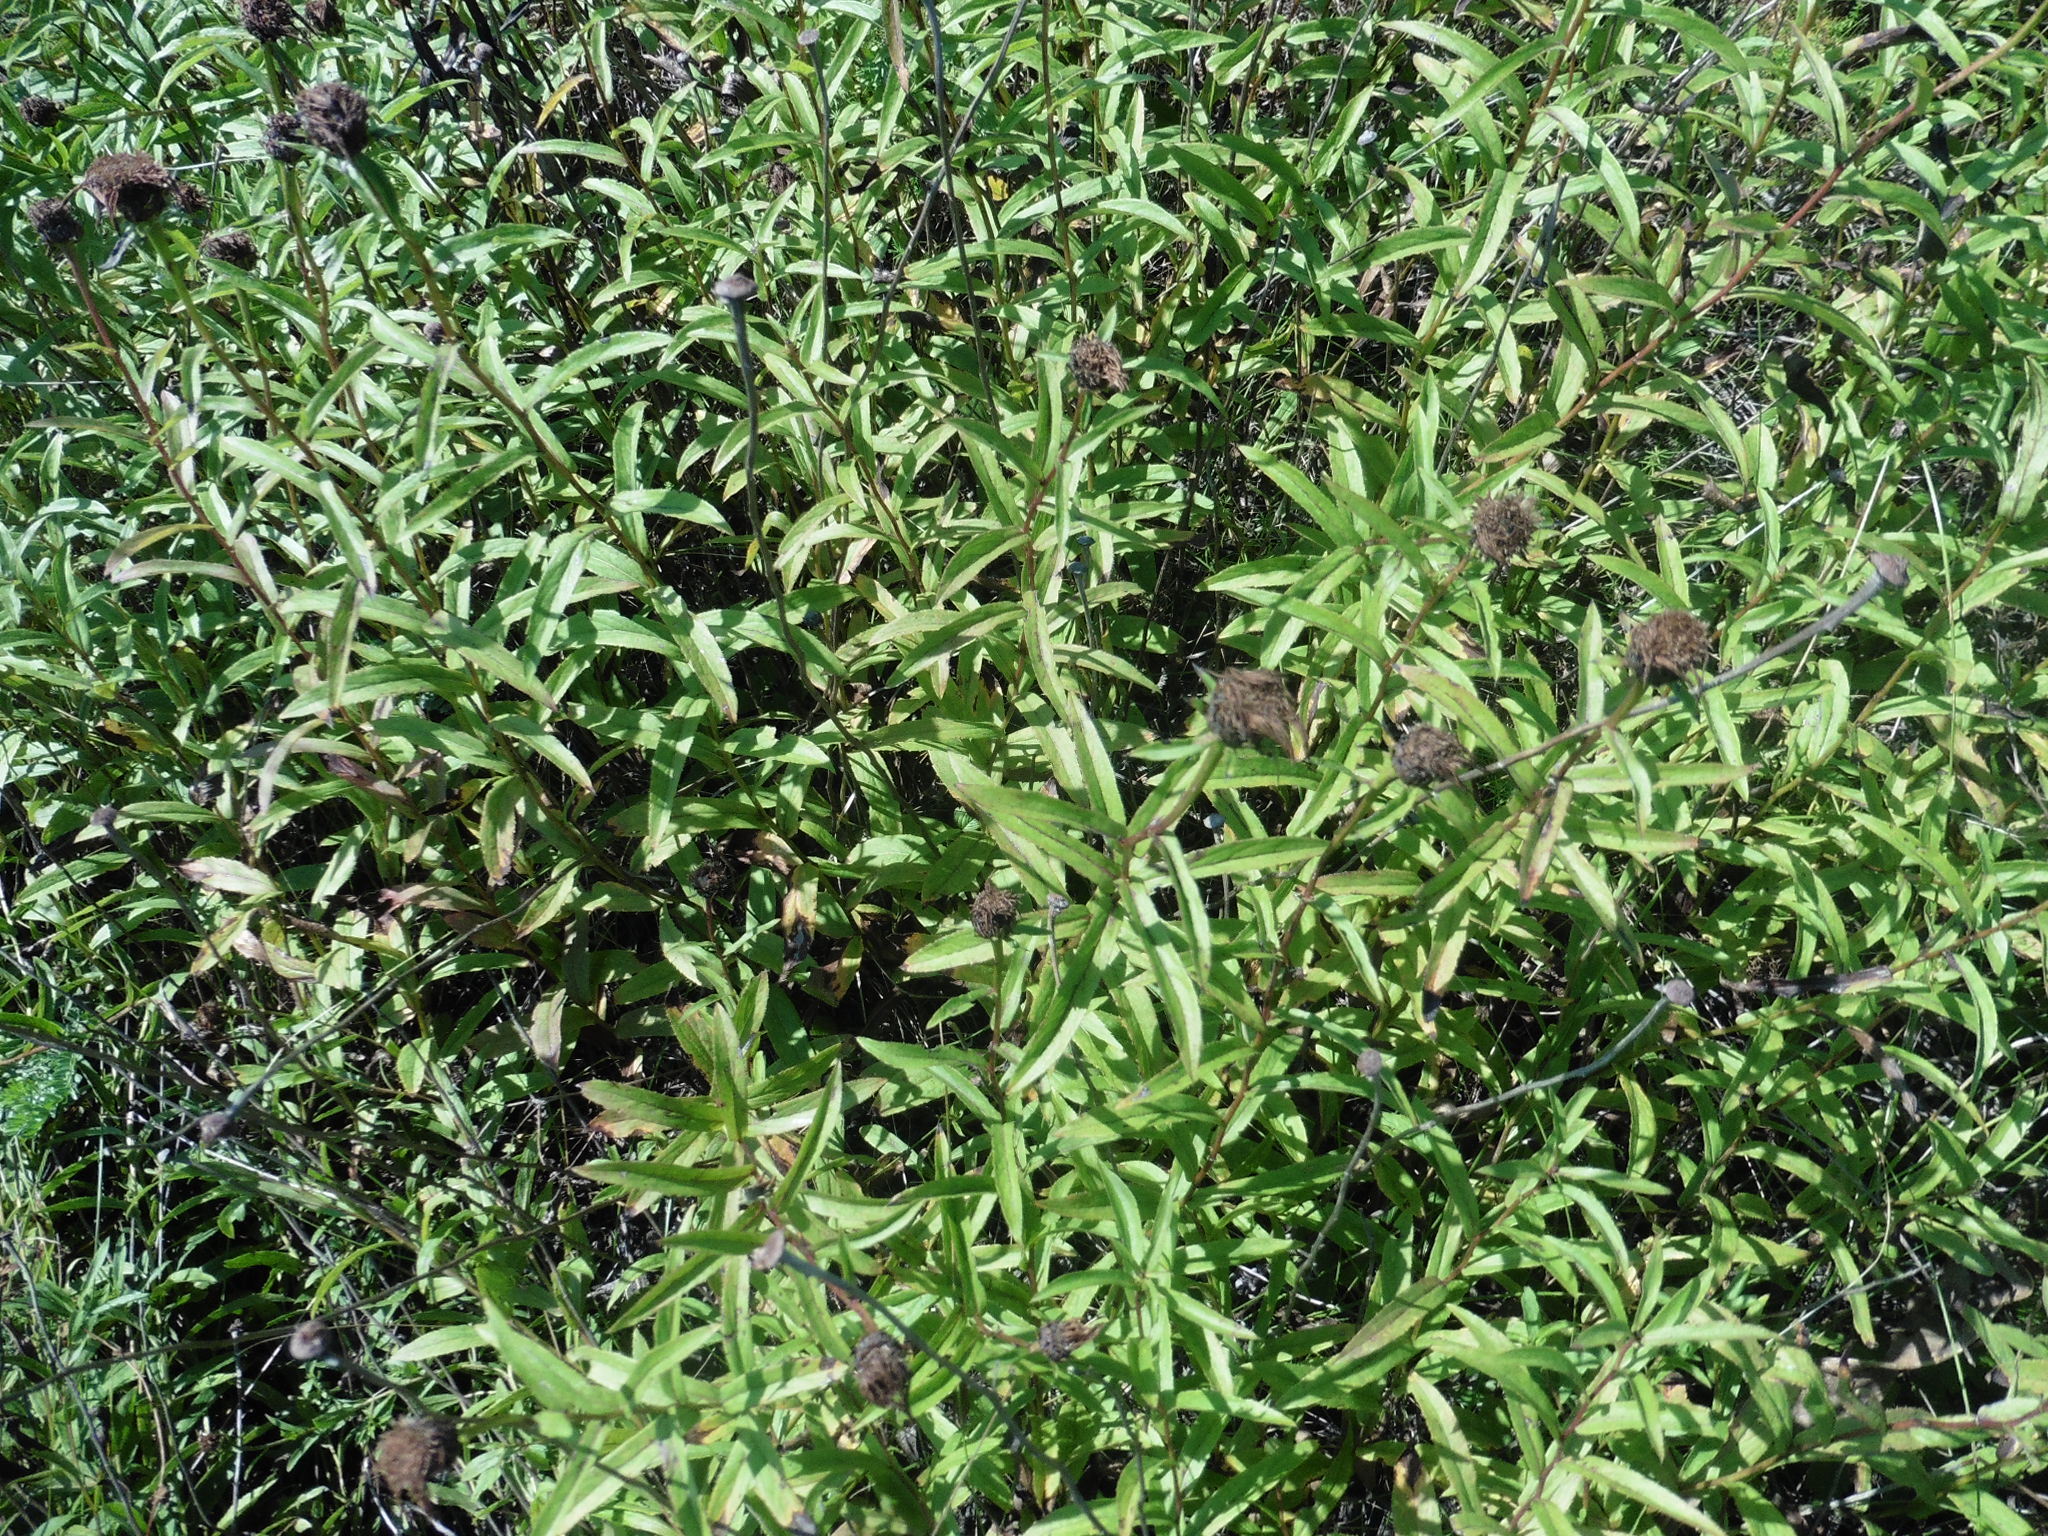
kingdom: Plantae
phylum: Tracheophyta
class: Magnoliopsida
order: Asterales
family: Asteraceae
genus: Pentanema
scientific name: Pentanema salicinum
